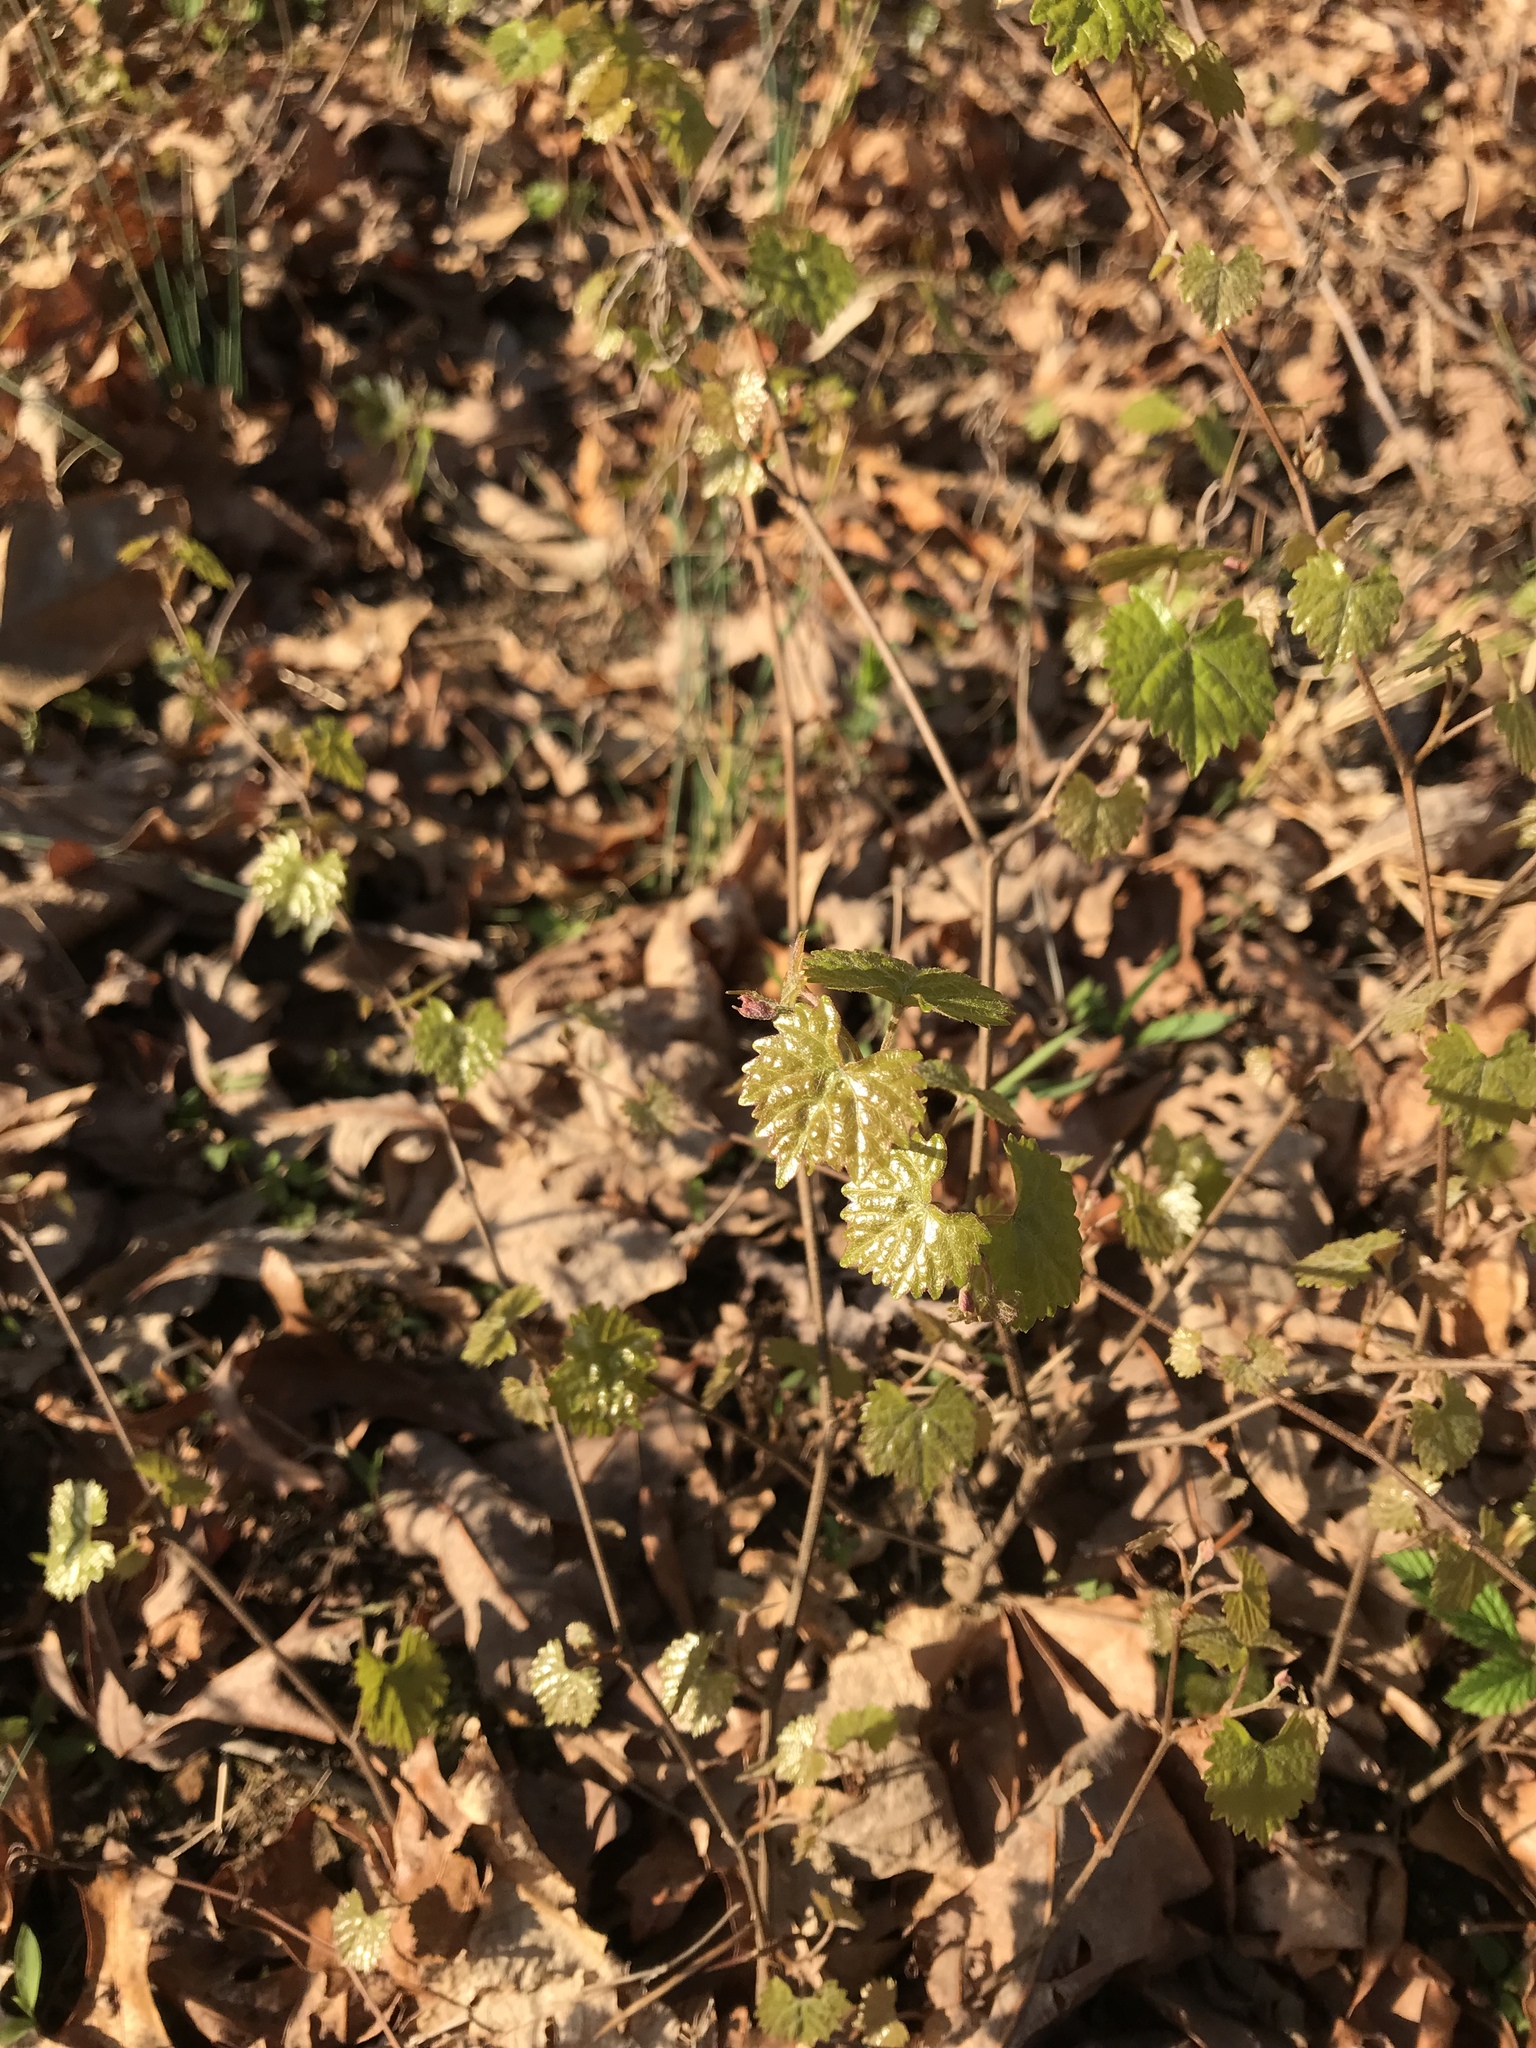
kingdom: Plantae
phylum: Tracheophyta
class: Magnoliopsida
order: Vitales
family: Vitaceae
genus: Vitis
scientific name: Vitis rotundifolia
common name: Muscadine grape
